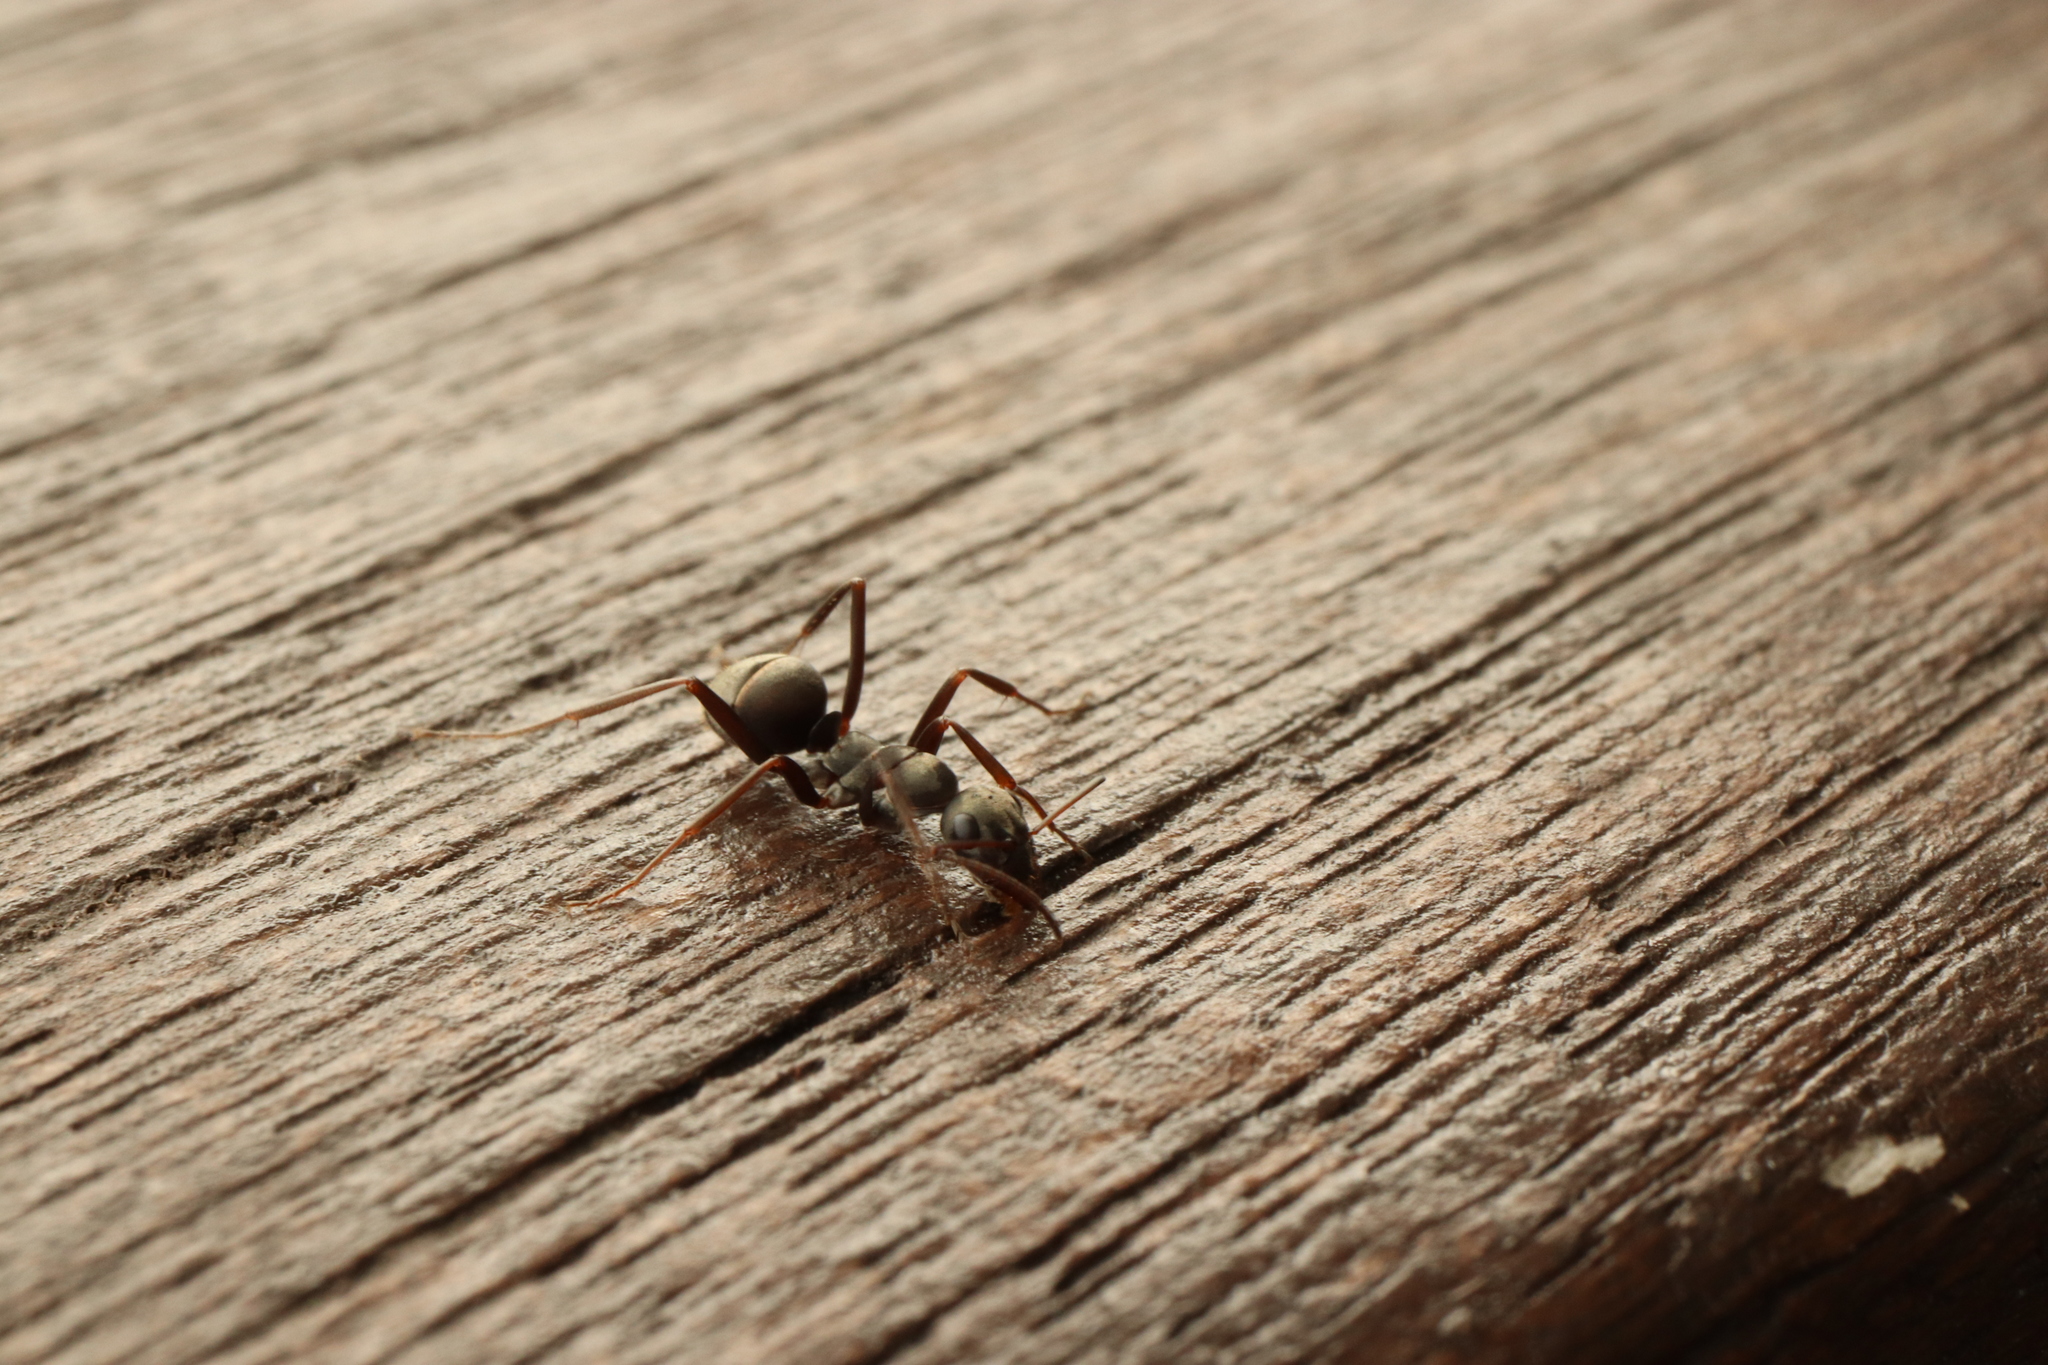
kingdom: Animalia
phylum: Arthropoda
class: Insecta
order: Hymenoptera
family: Formicidae
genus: Formica
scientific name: Formica japonica
